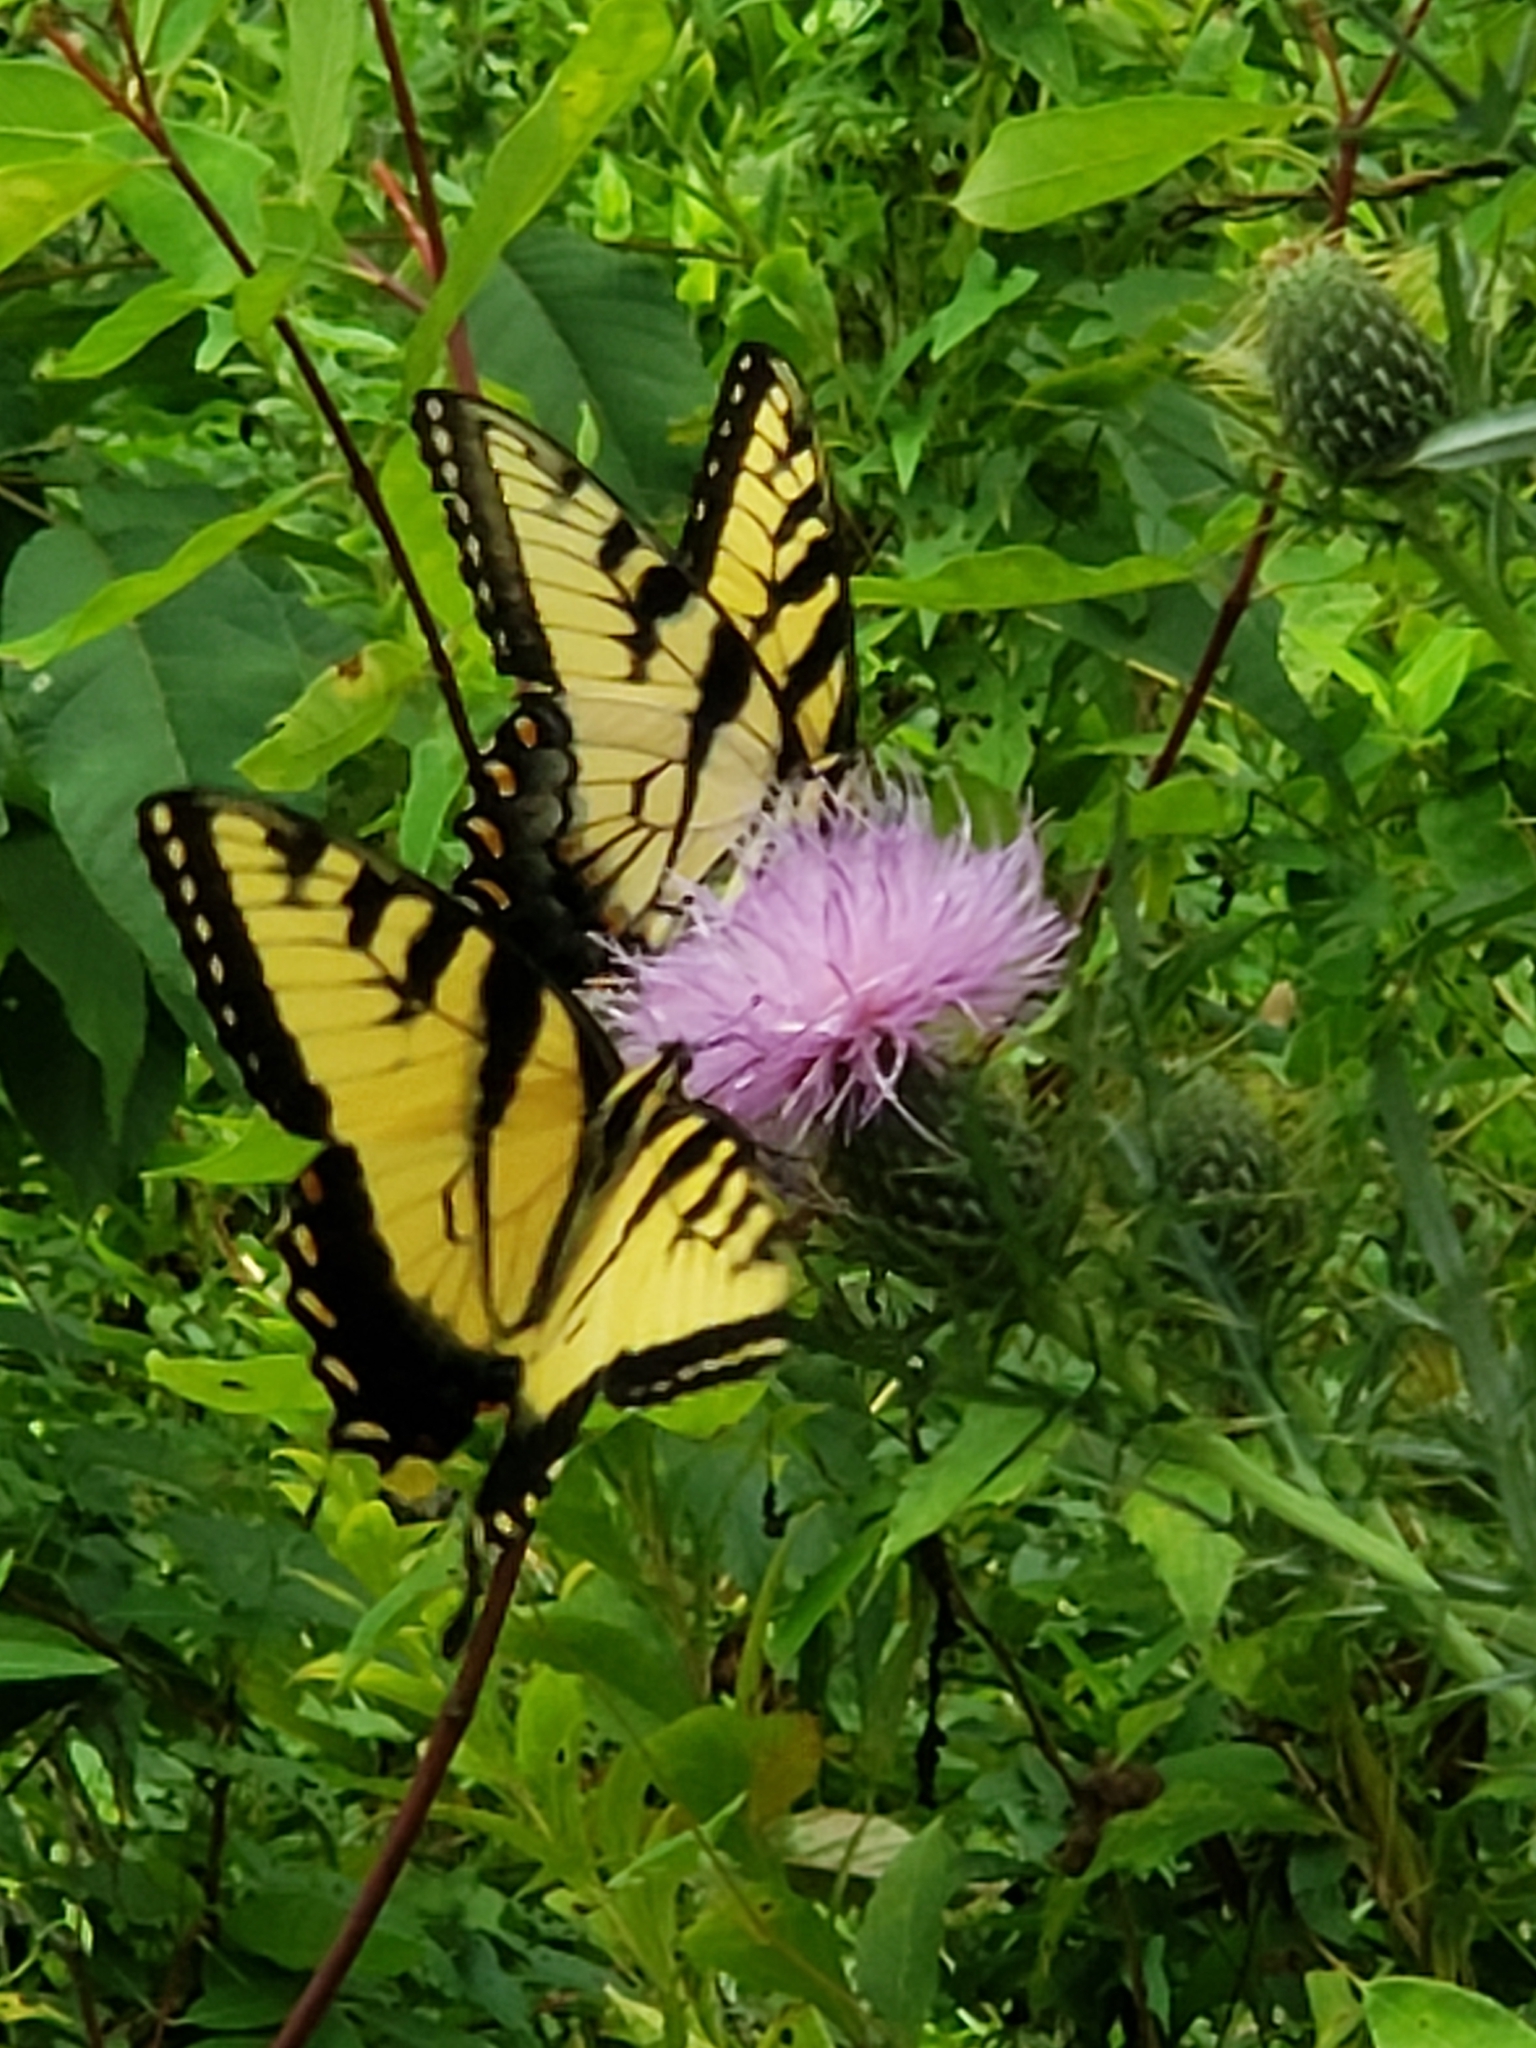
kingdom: Animalia
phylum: Arthropoda
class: Insecta
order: Lepidoptera
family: Papilionidae
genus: Papilio
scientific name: Papilio glaucus
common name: Tiger swallowtail
